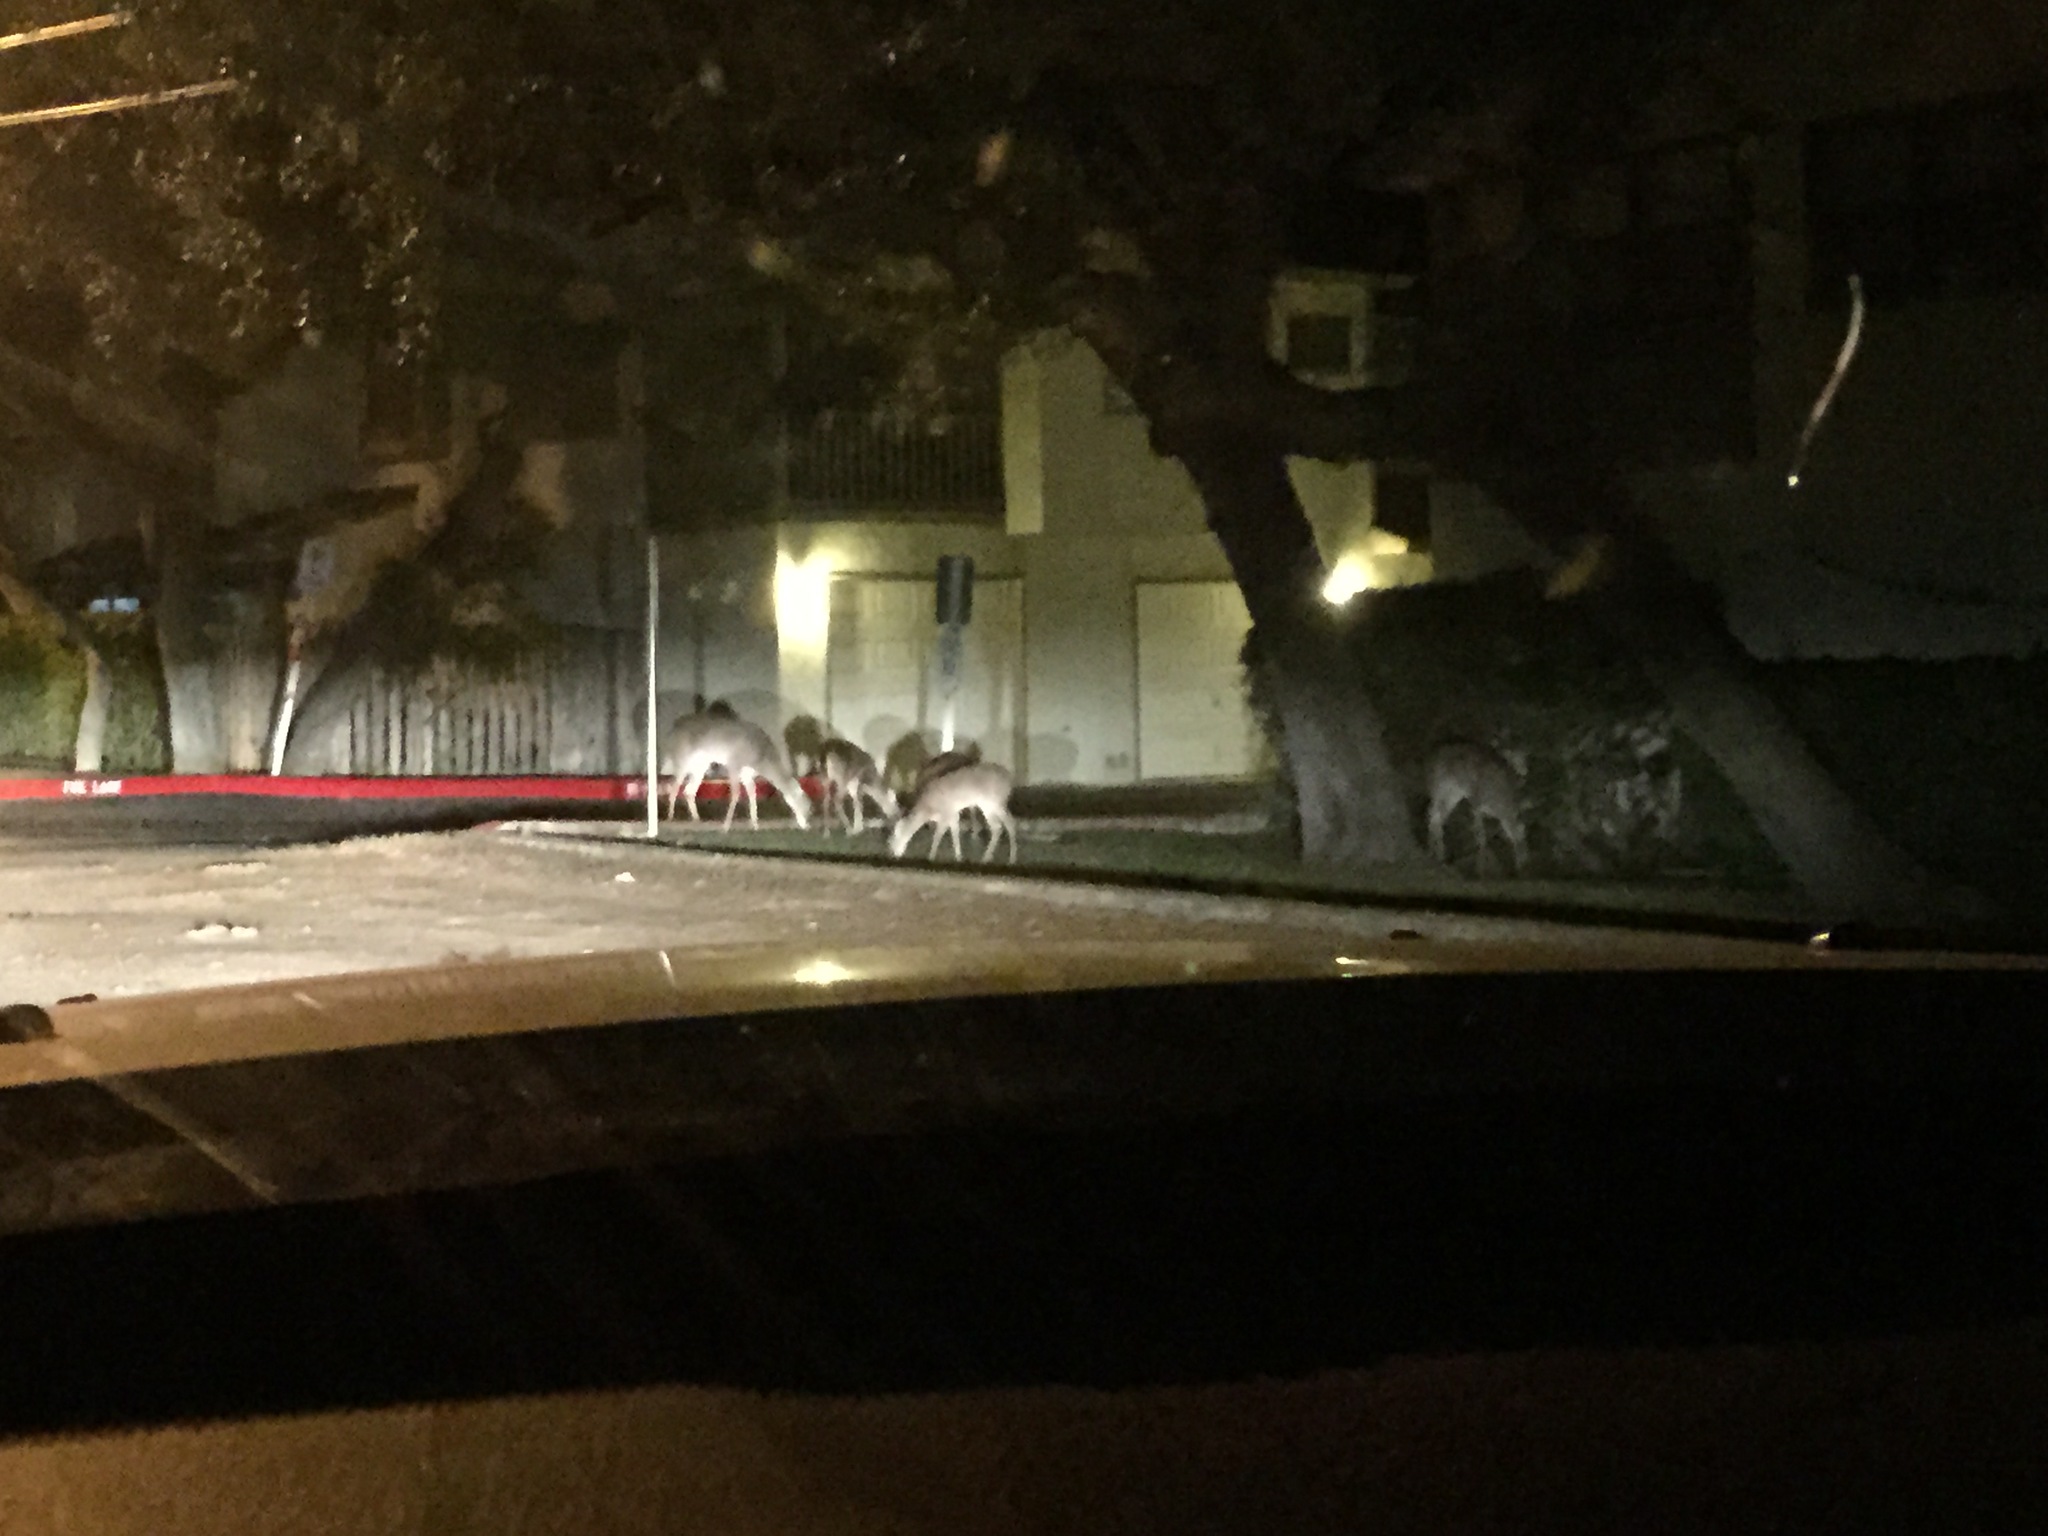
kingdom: Animalia
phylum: Chordata
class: Mammalia
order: Artiodactyla
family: Cervidae
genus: Odocoileus
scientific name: Odocoileus virginianus
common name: White-tailed deer
